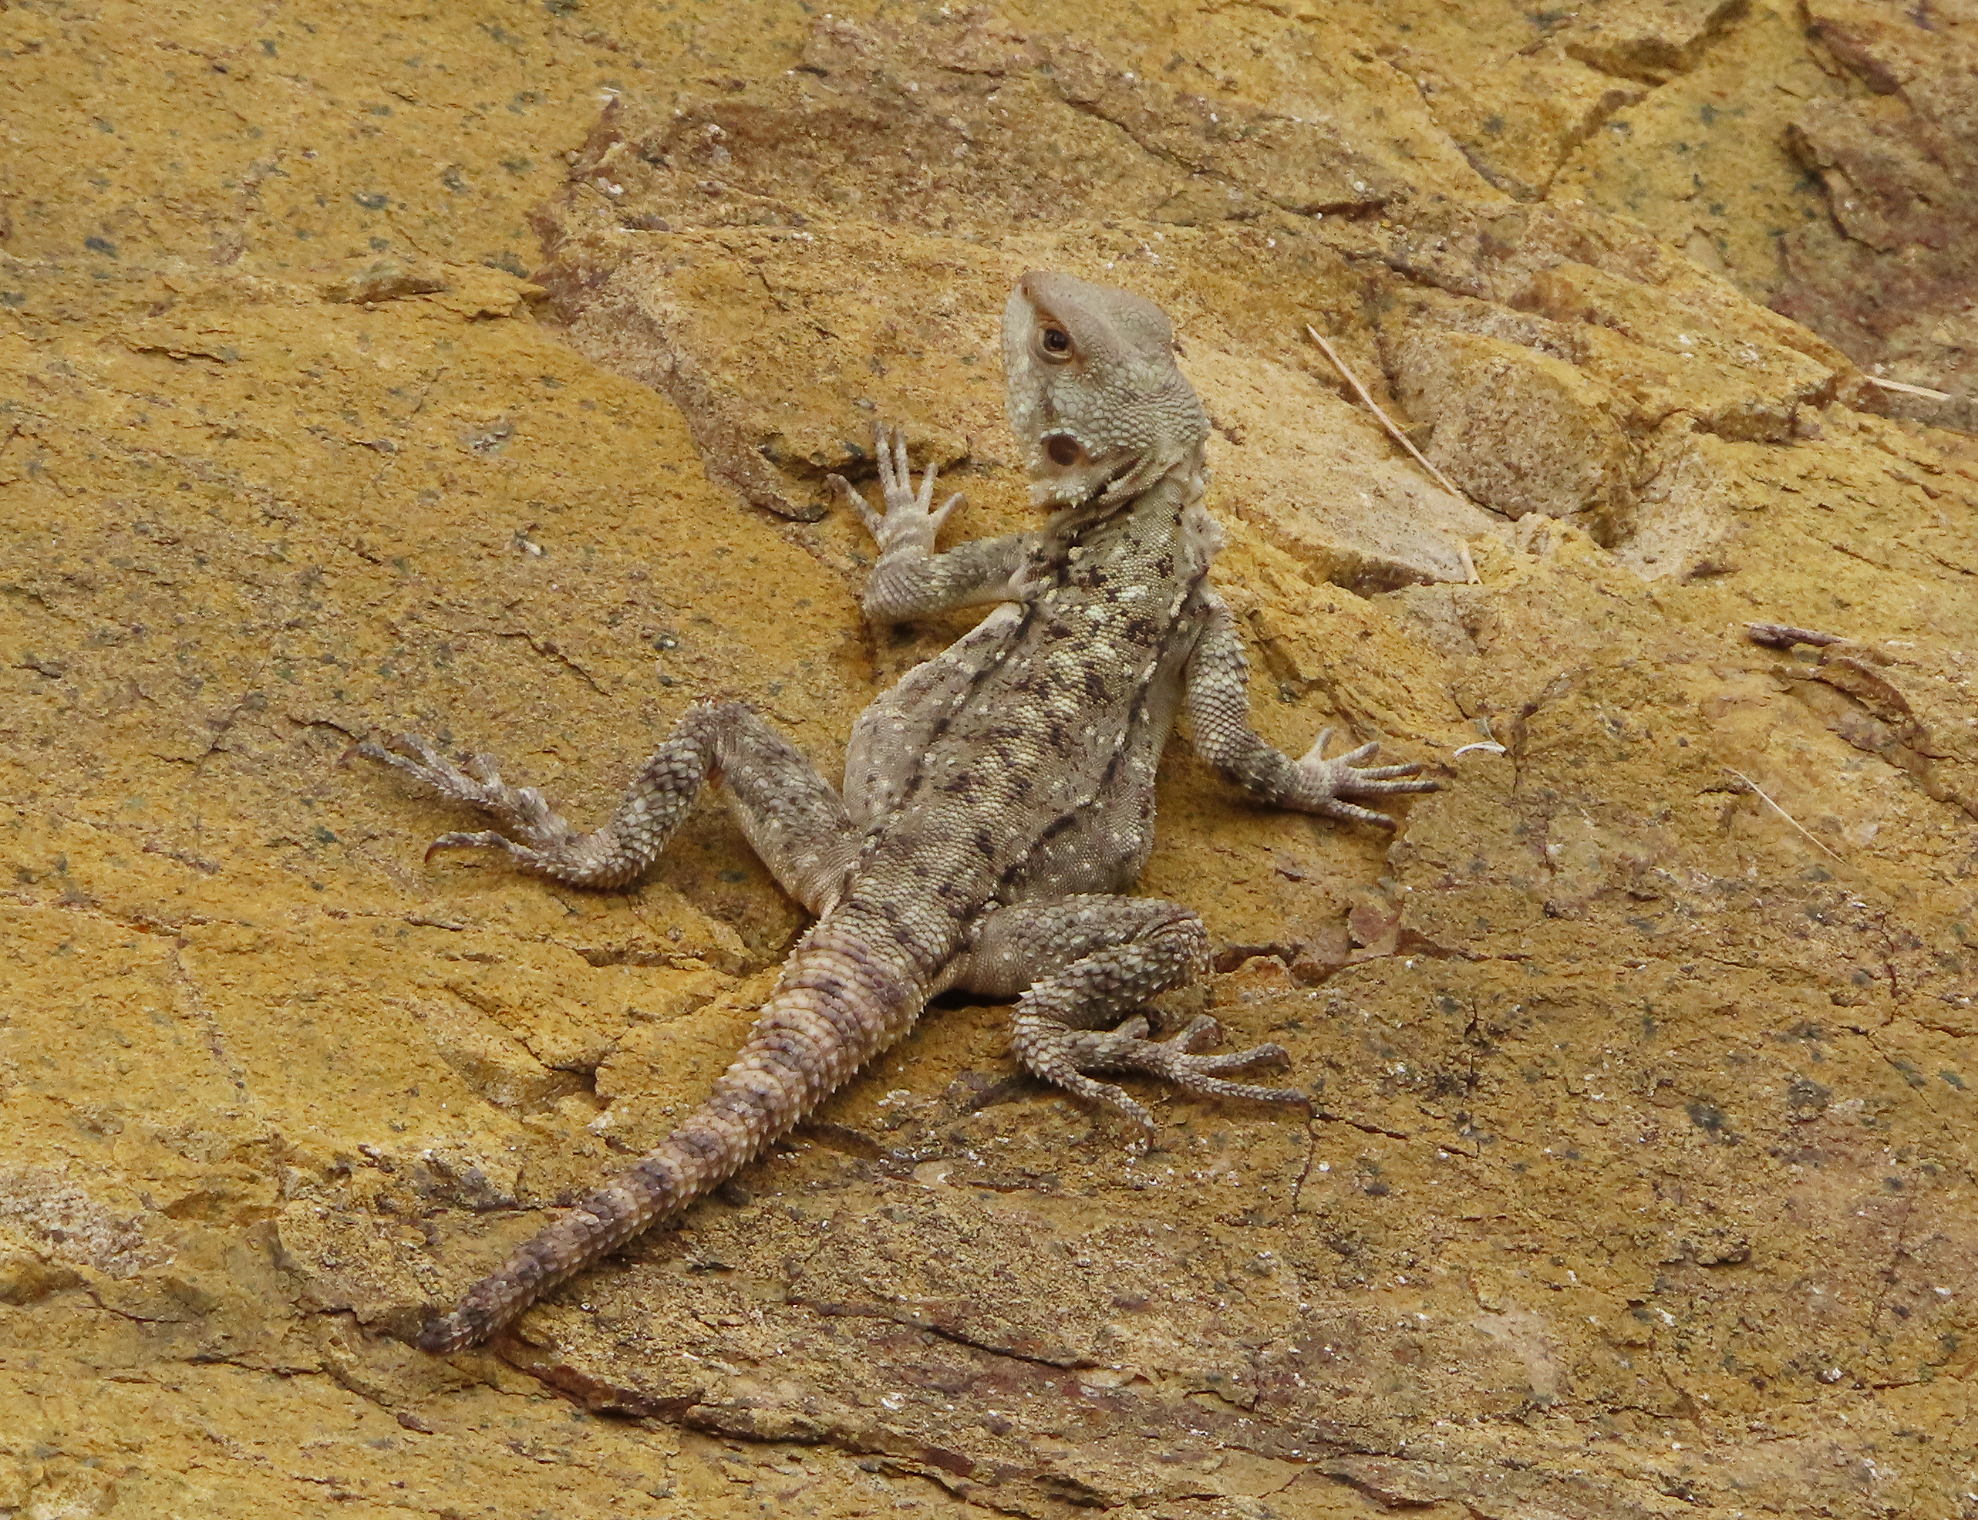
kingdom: Animalia
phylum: Chordata
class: Squamata
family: Agamidae
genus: Paralaudakia
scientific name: Paralaudakia caucasia
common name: Caucasian agama
